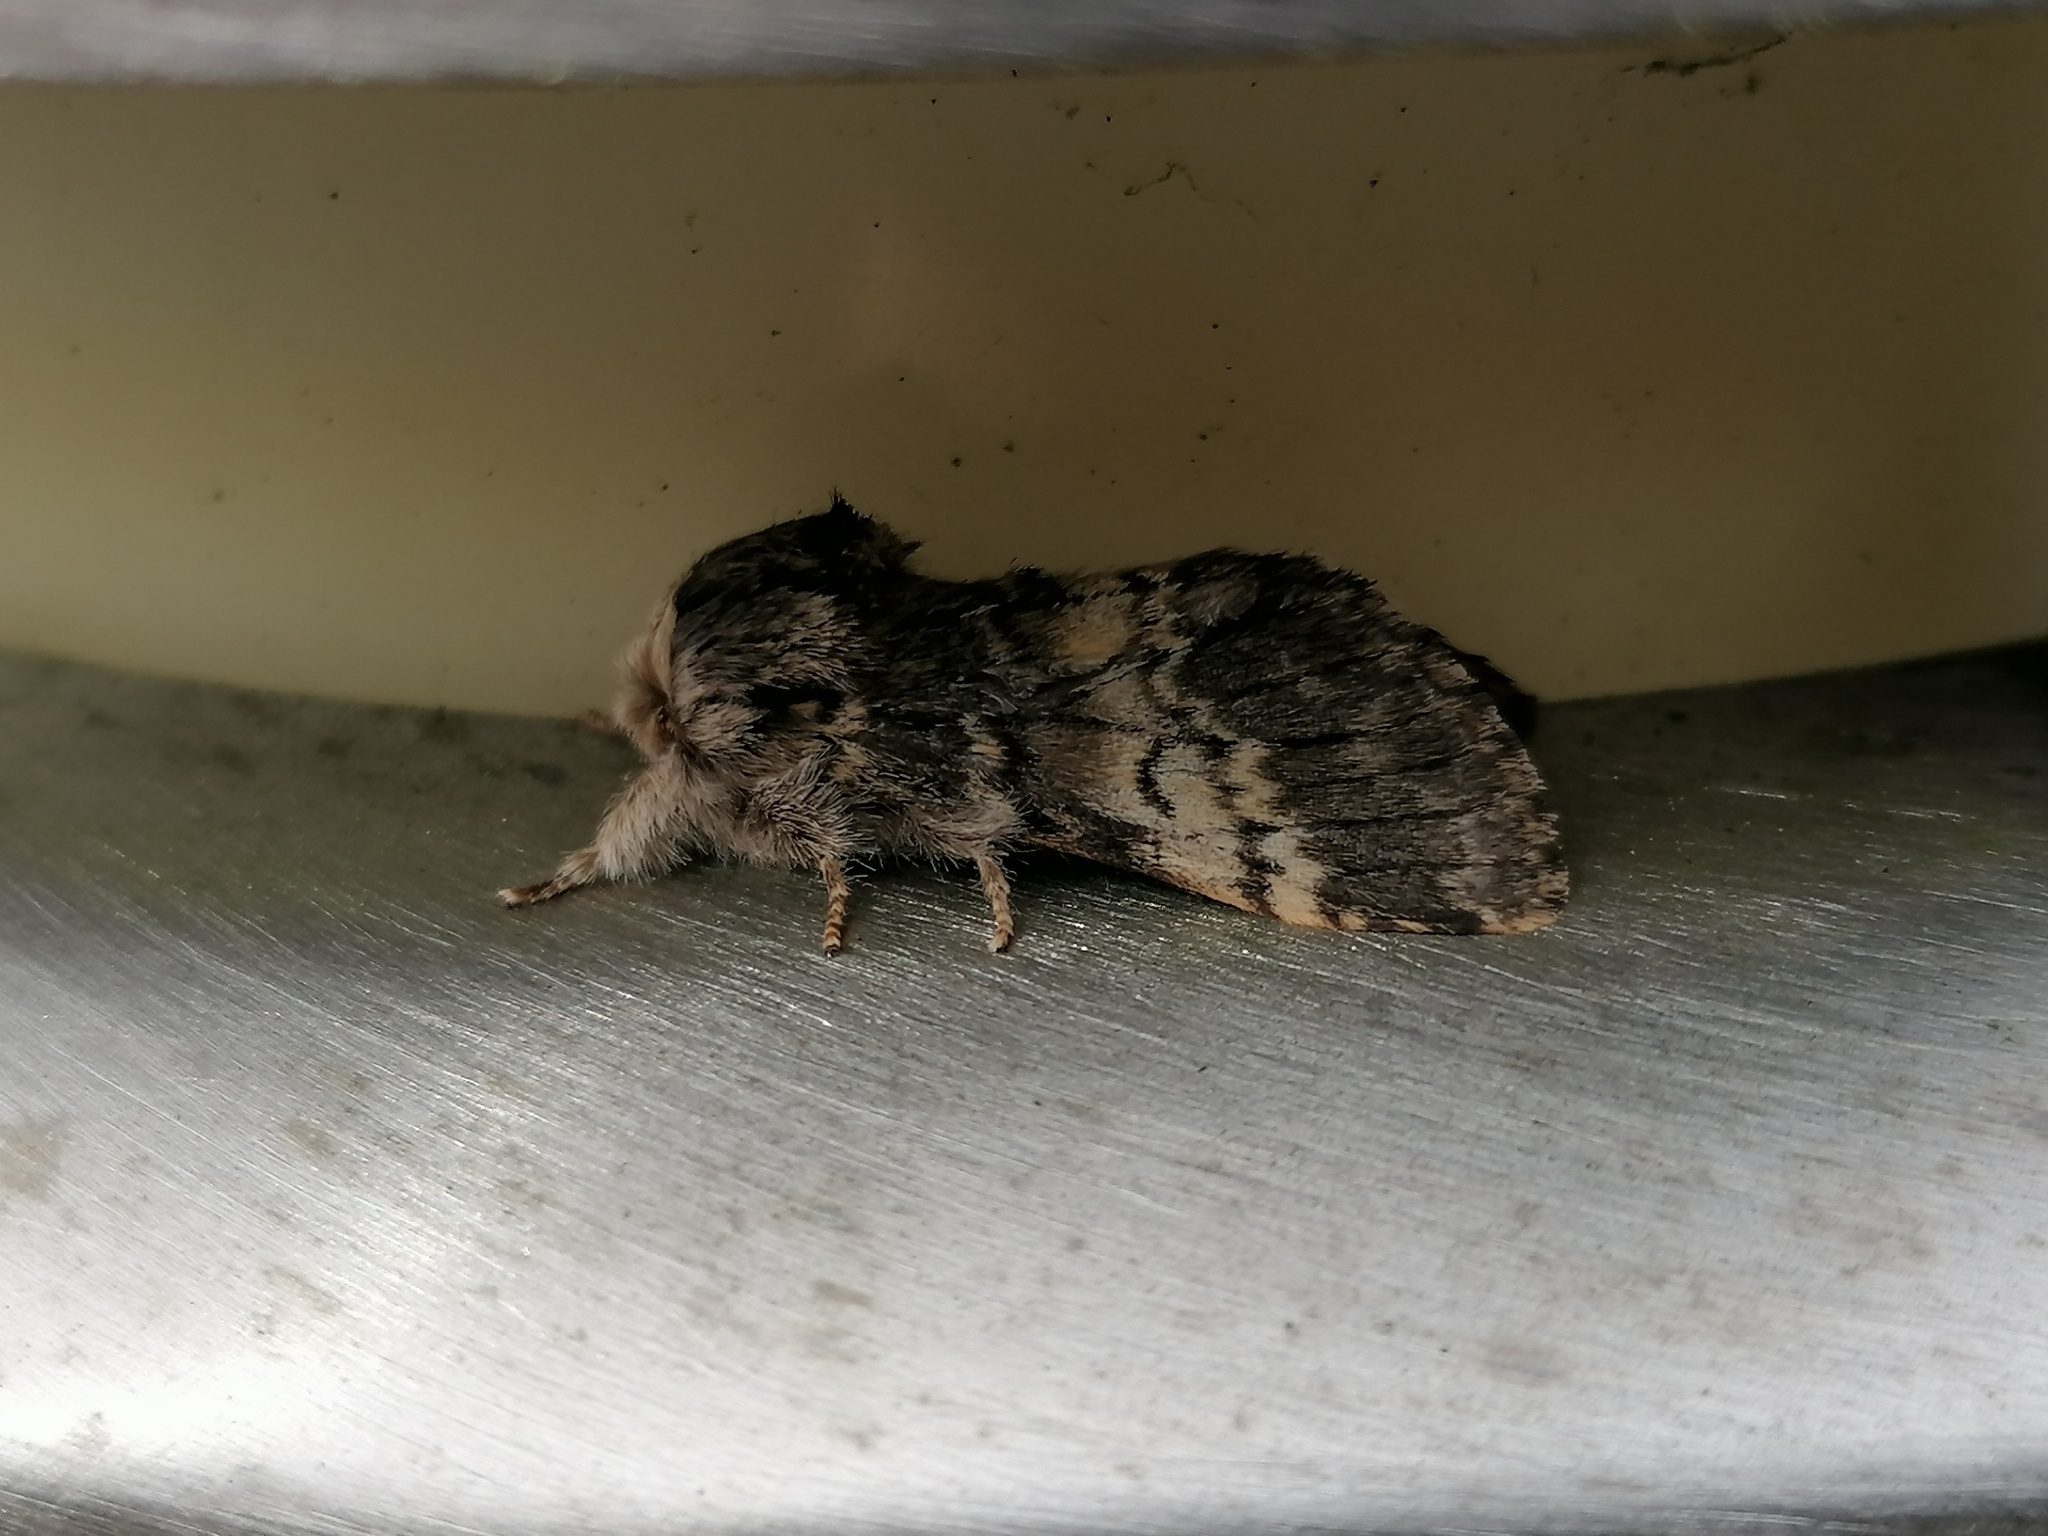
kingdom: Animalia
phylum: Arthropoda
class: Insecta
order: Lepidoptera
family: Notodontidae
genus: Drymonia
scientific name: Drymonia ruficornis
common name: Lunar marbled brown
